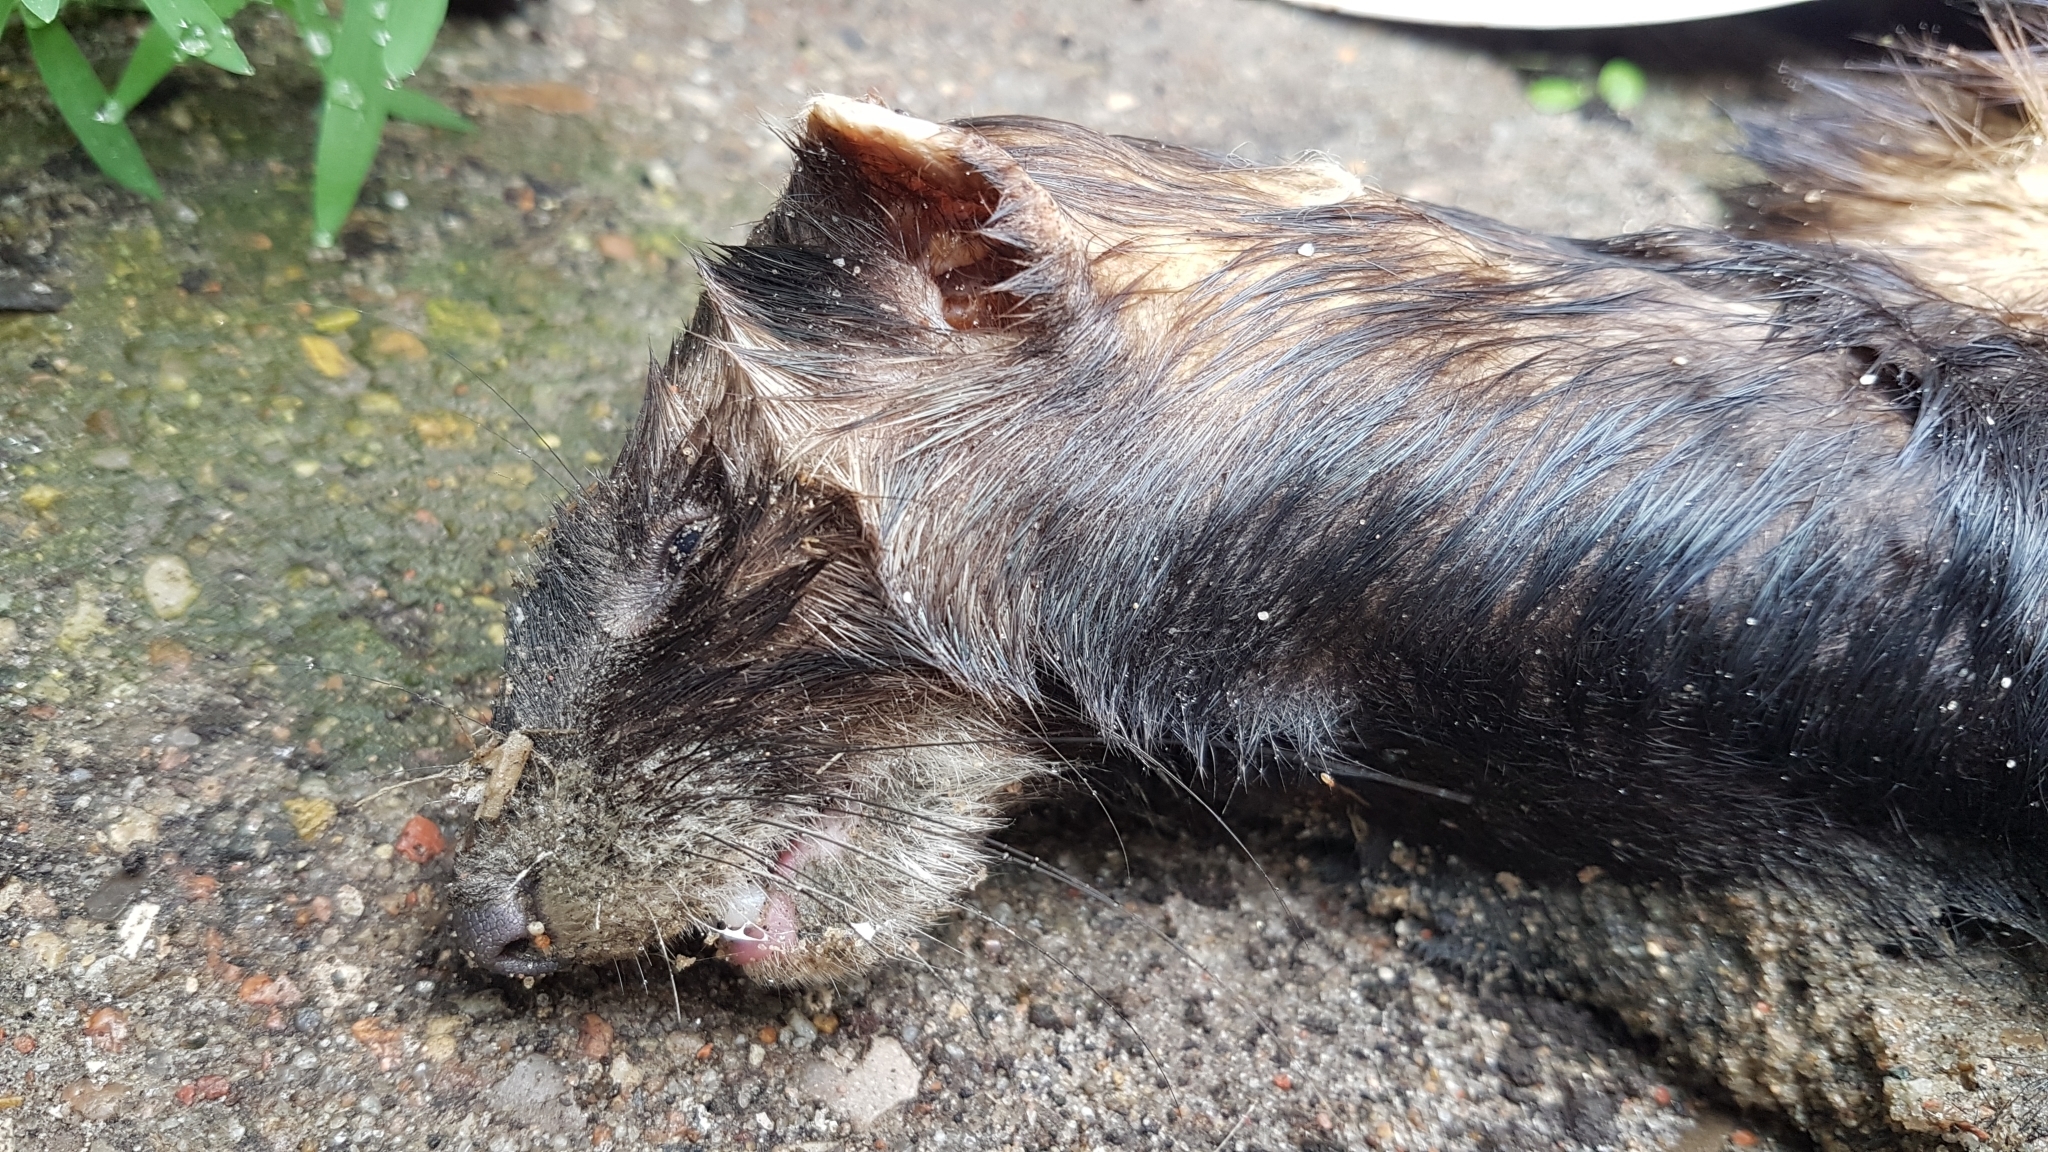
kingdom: Animalia
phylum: Chordata
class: Mammalia
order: Carnivora
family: Mustelidae
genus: Mustela
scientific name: Mustela putorius
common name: European polecat
